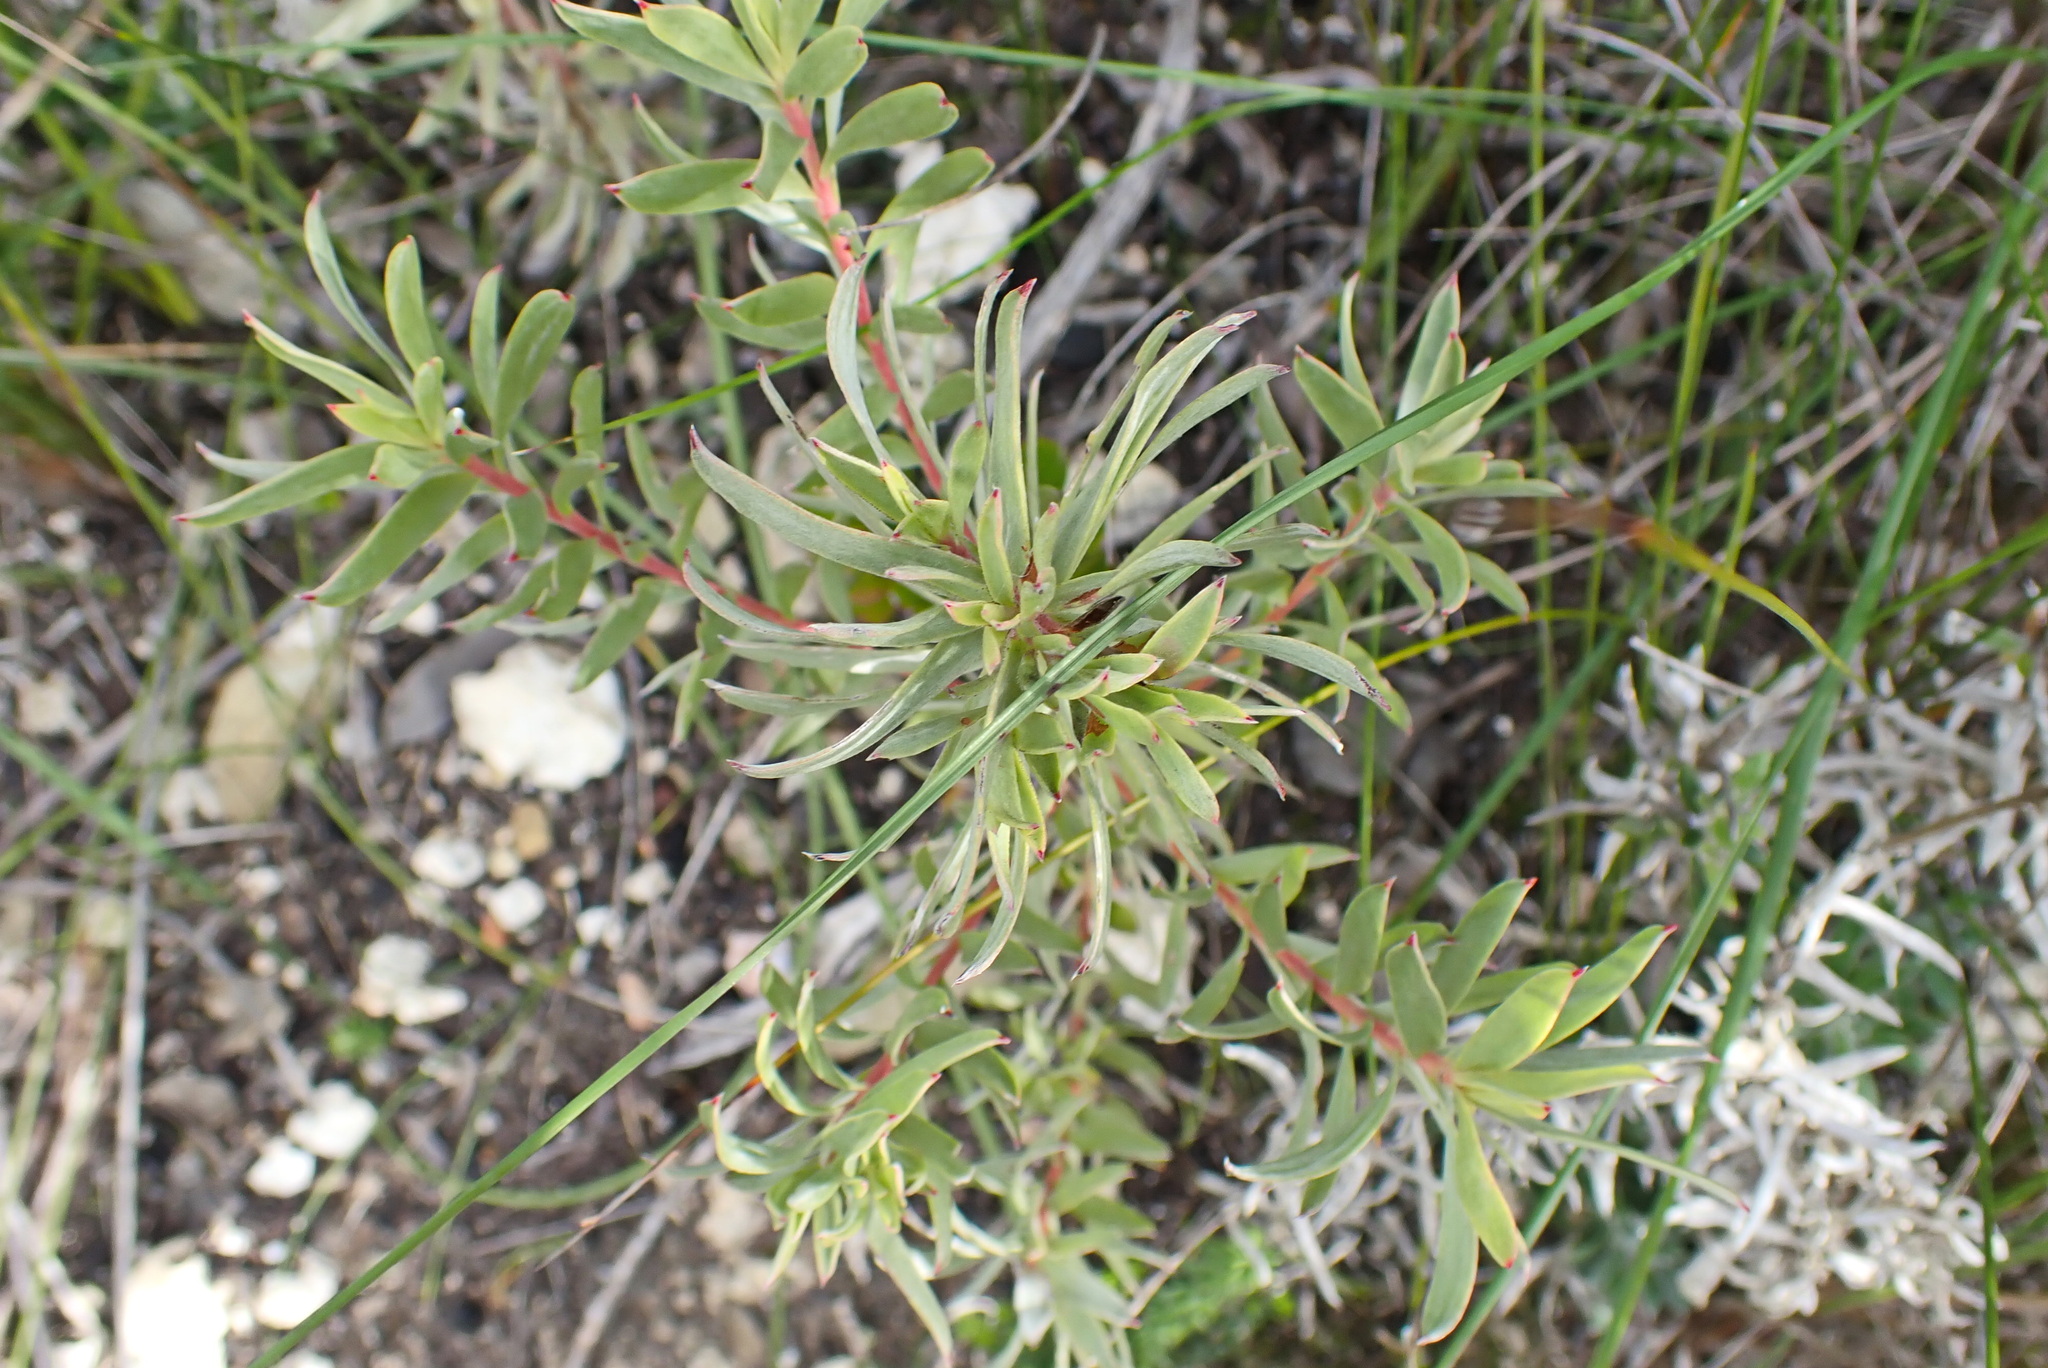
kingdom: Plantae
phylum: Tracheophyta
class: Magnoliopsida
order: Proteales
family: Proteaceae
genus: Leucadendron
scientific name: Leucadendron meridianum
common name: Limestone conebush
